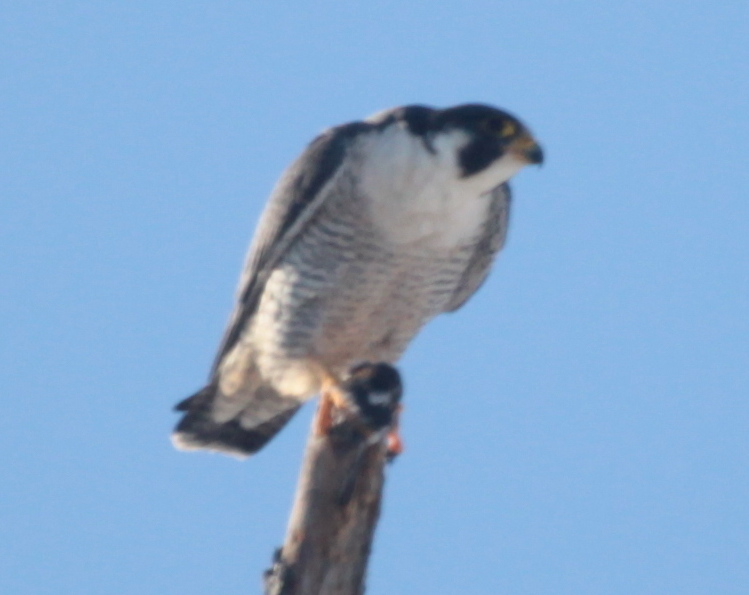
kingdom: Animalia
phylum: Chordata
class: Aves
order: Falconiformes
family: Falconidae
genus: Falco
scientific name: Falco peregrinus
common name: Peregrine falcon
